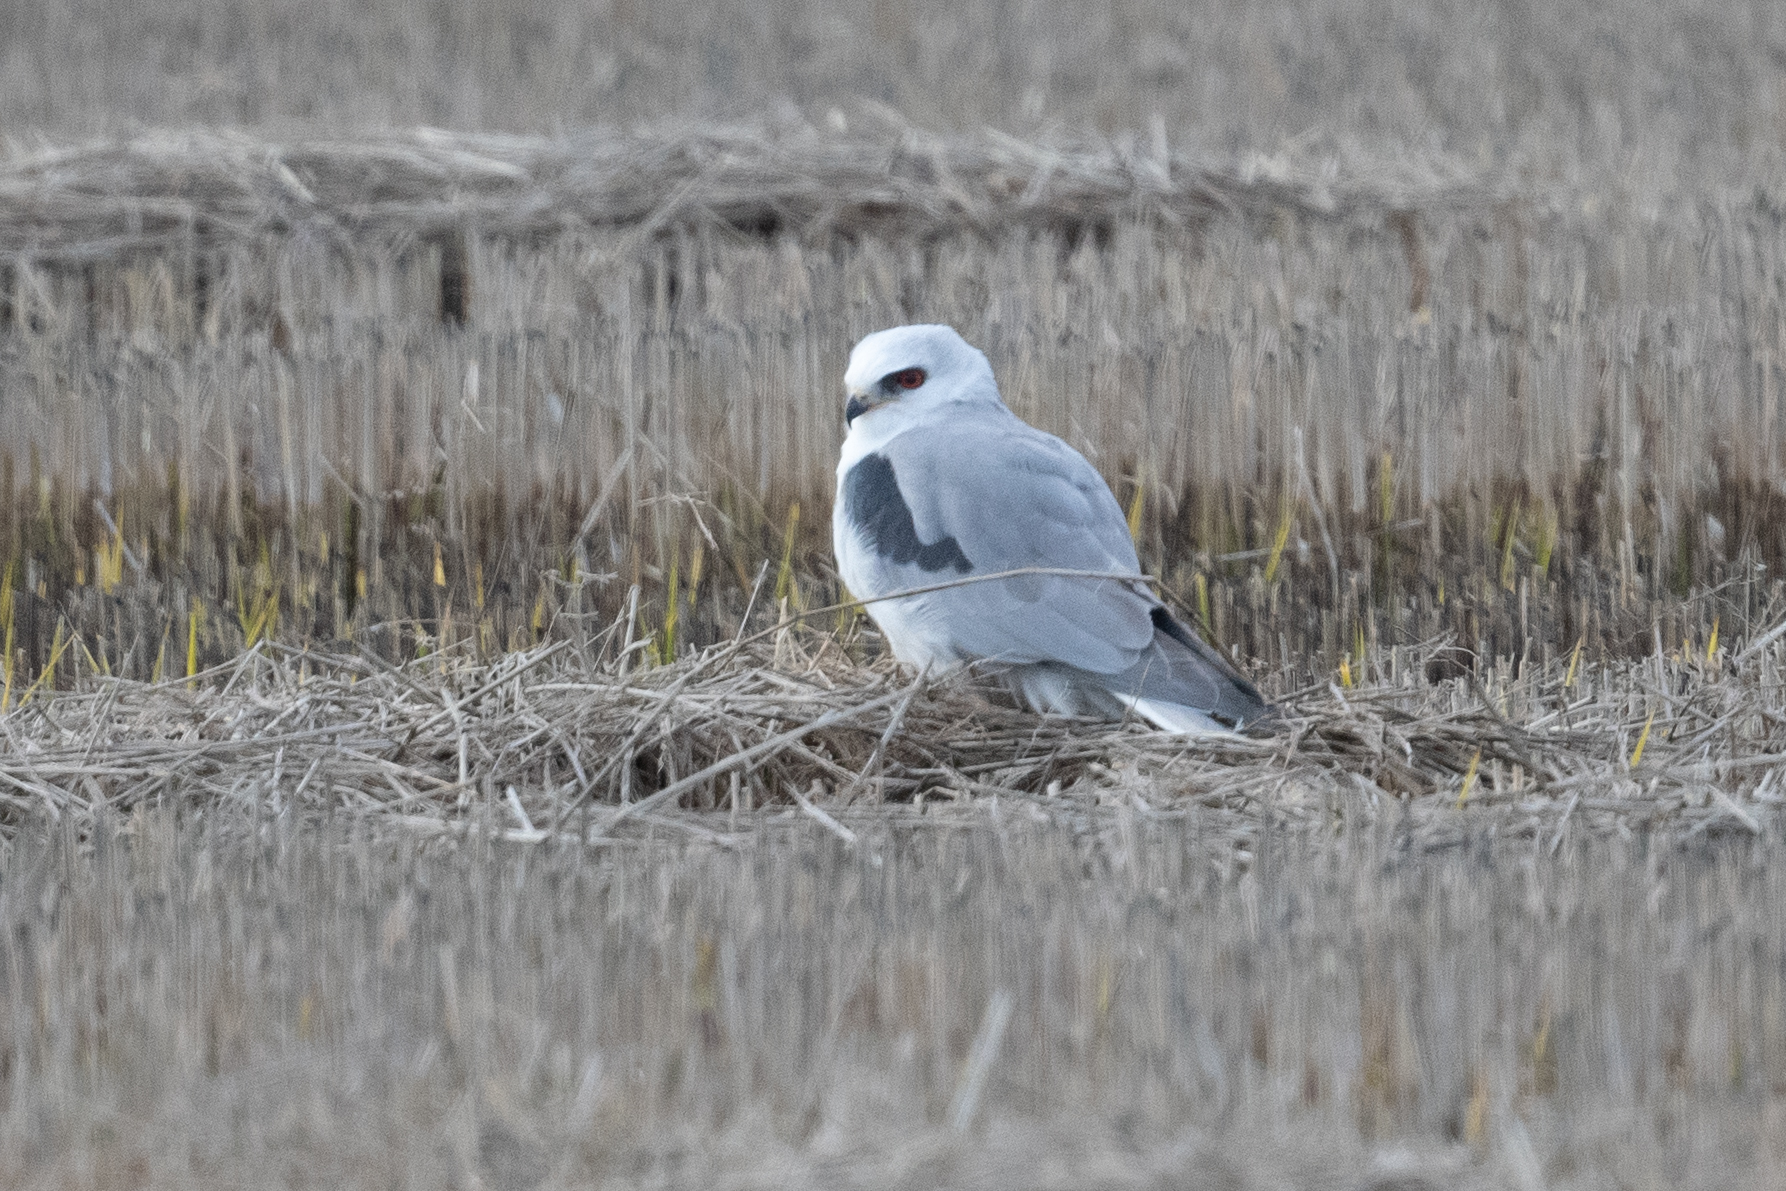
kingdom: Animalia
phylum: Chordata
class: Aves
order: Accipitriformes
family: Accipitridae
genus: Elanus
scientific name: Elanus leucurus
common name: White-tailed kite
